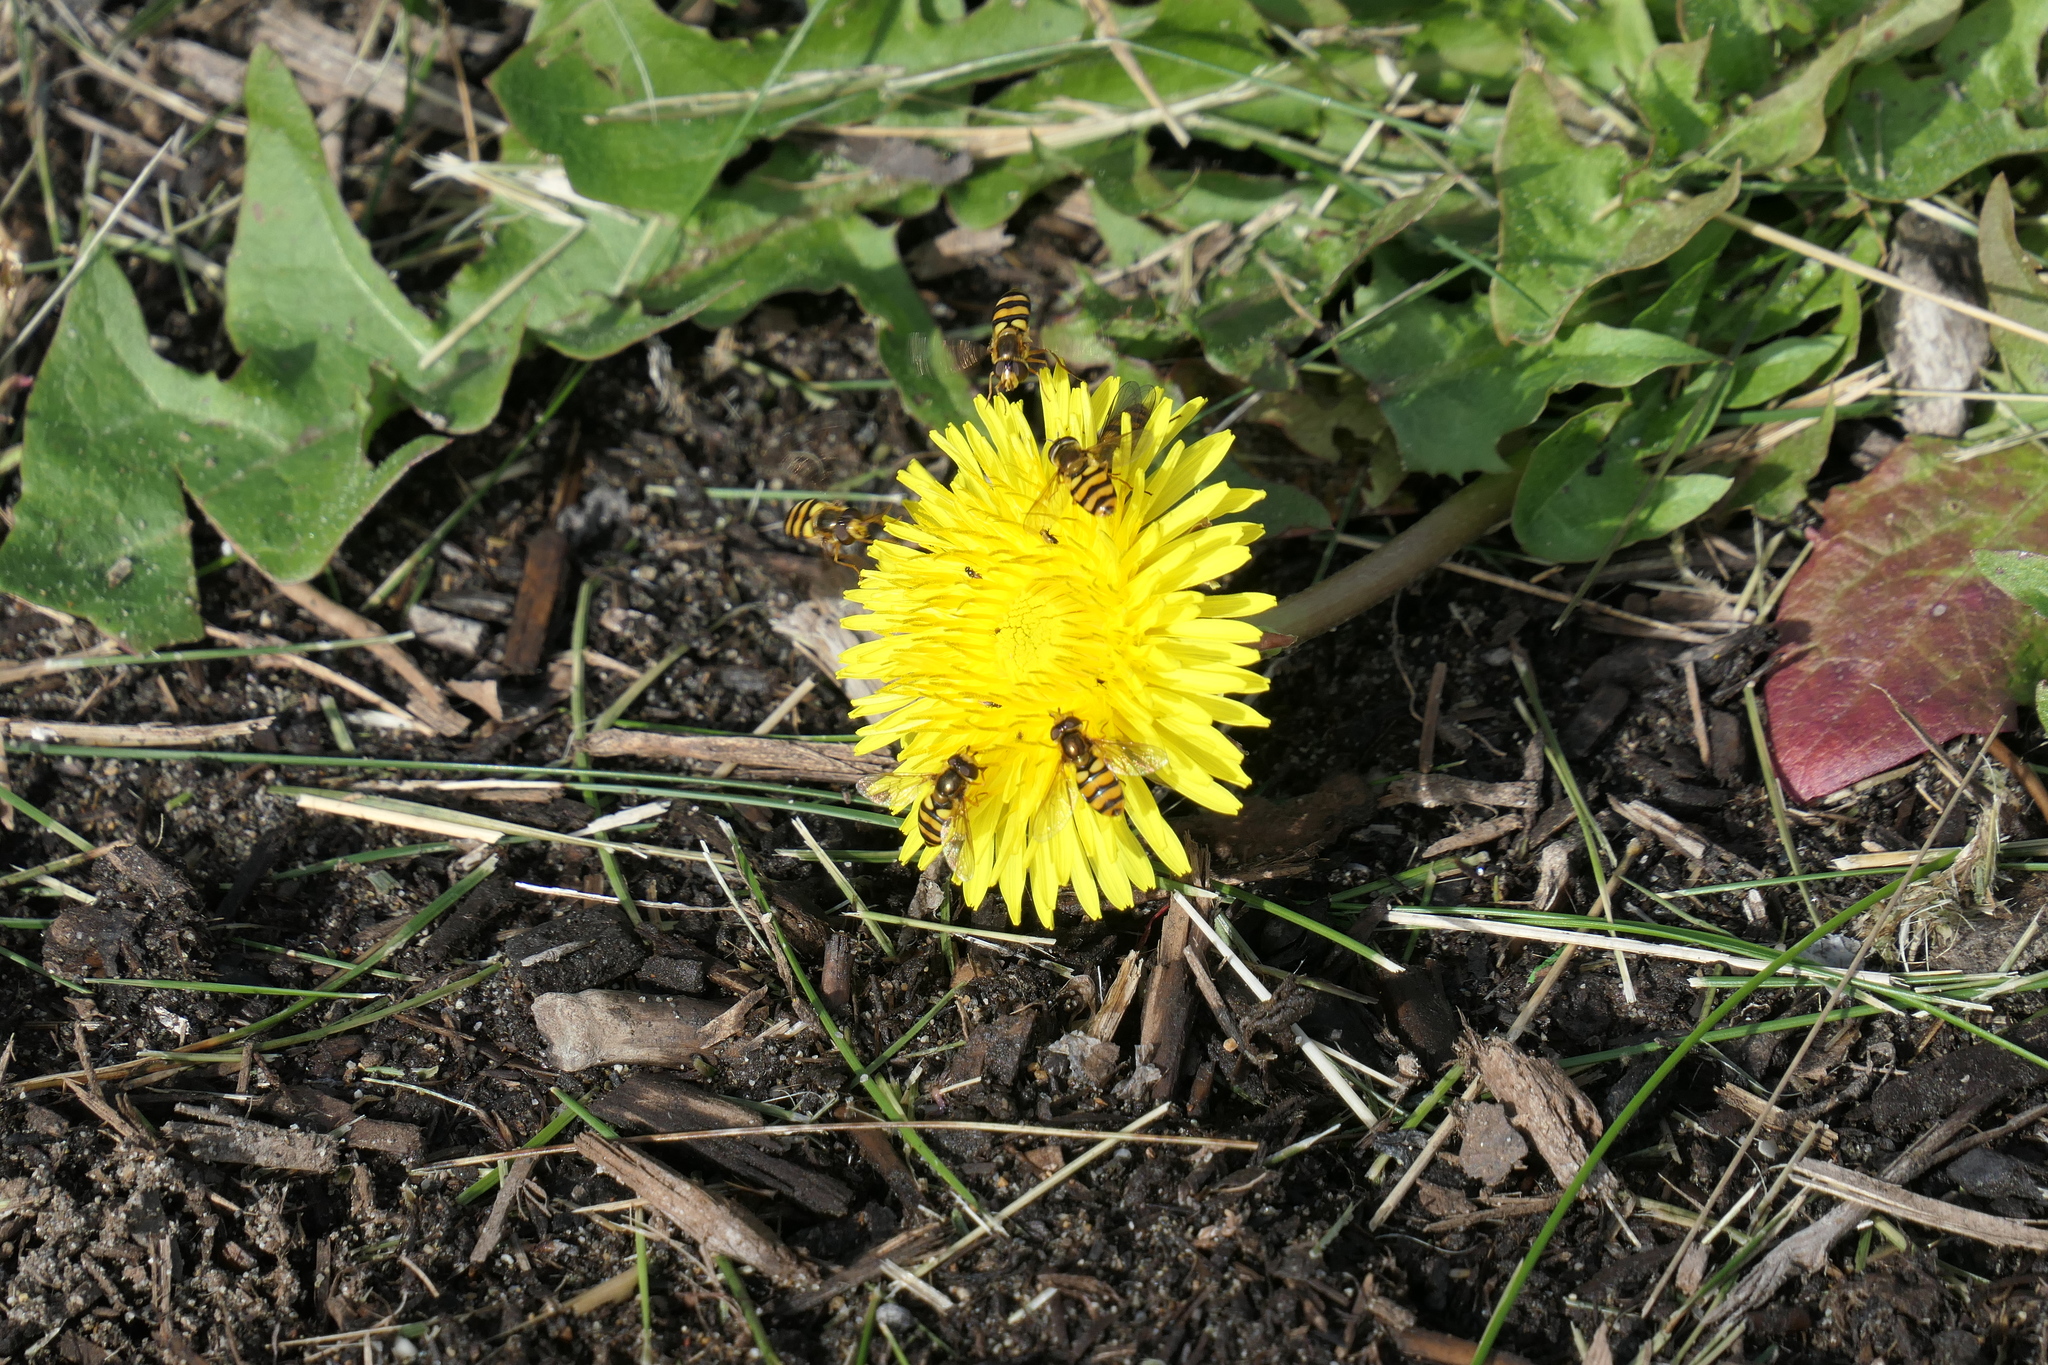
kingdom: Animalia
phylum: Arthropoda
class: Insecta
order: Diptera
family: Syrphidae
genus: Eupeodes
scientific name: Eupeodes latifasciatus
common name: Variable aphideater
